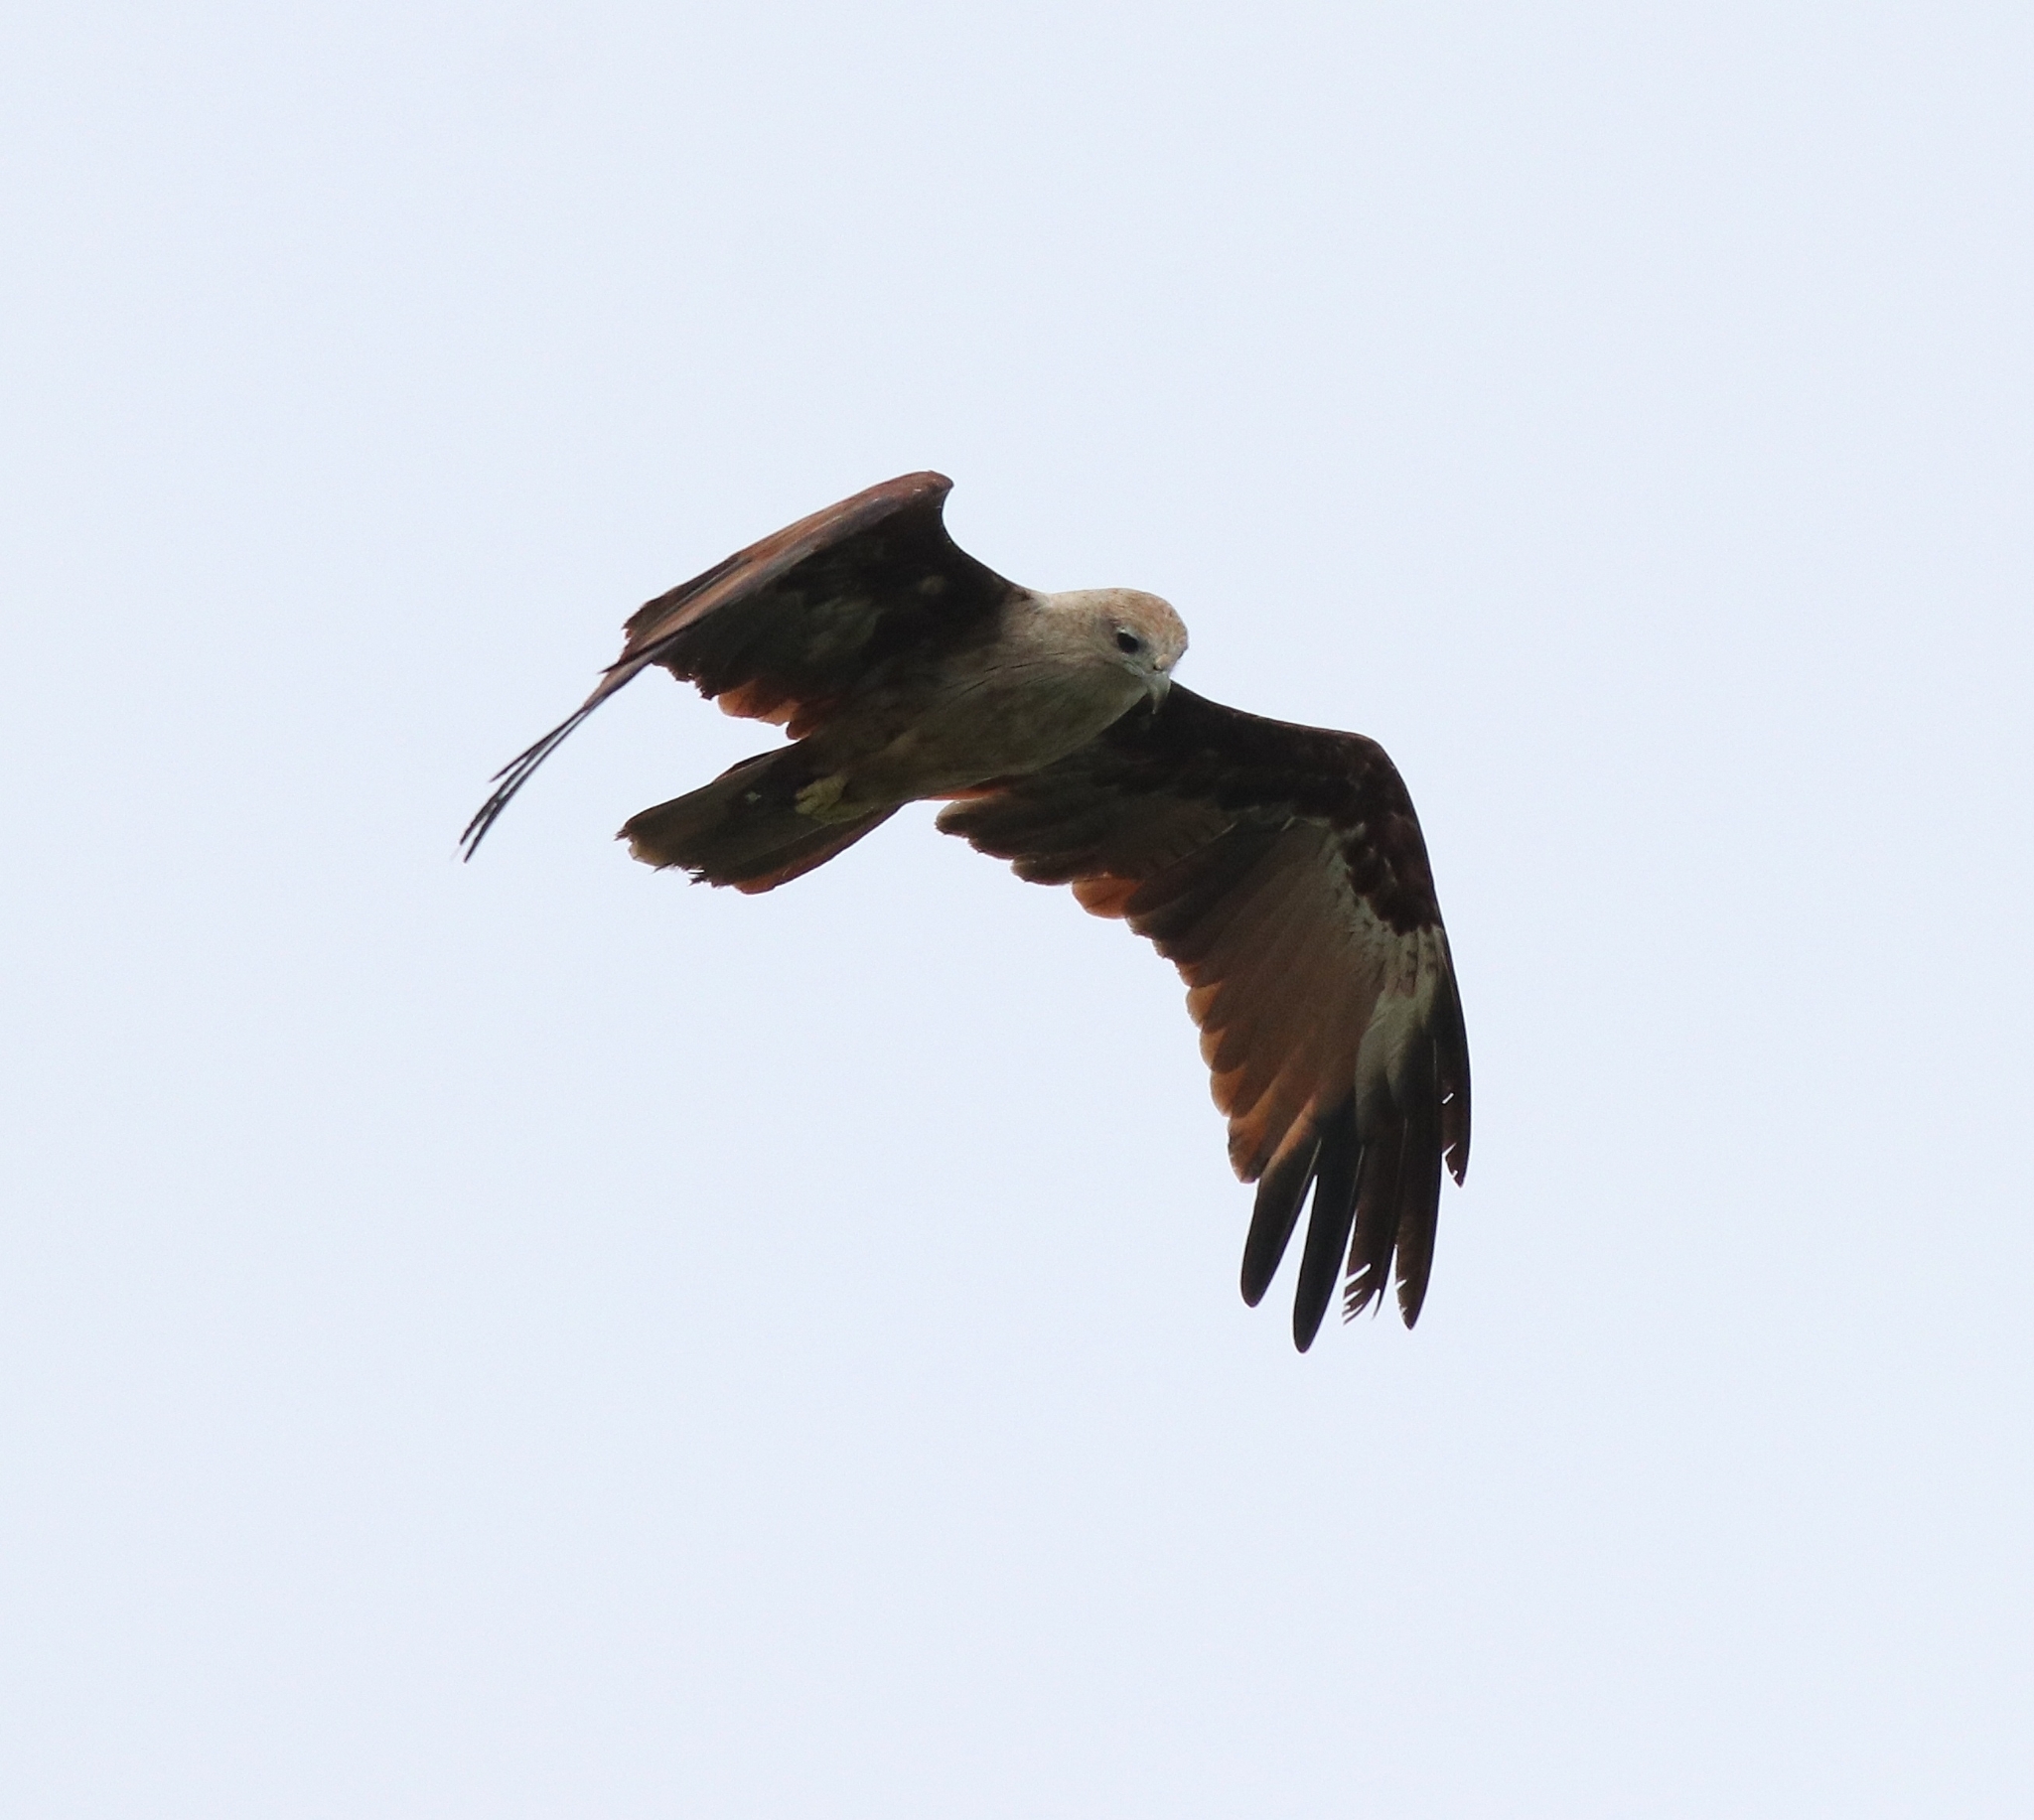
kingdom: Animalia
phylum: Chordata
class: Aves
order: Accipitriformes
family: Accipitridae
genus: Haliastur
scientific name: Haliastur indus
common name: Brahminy kite
